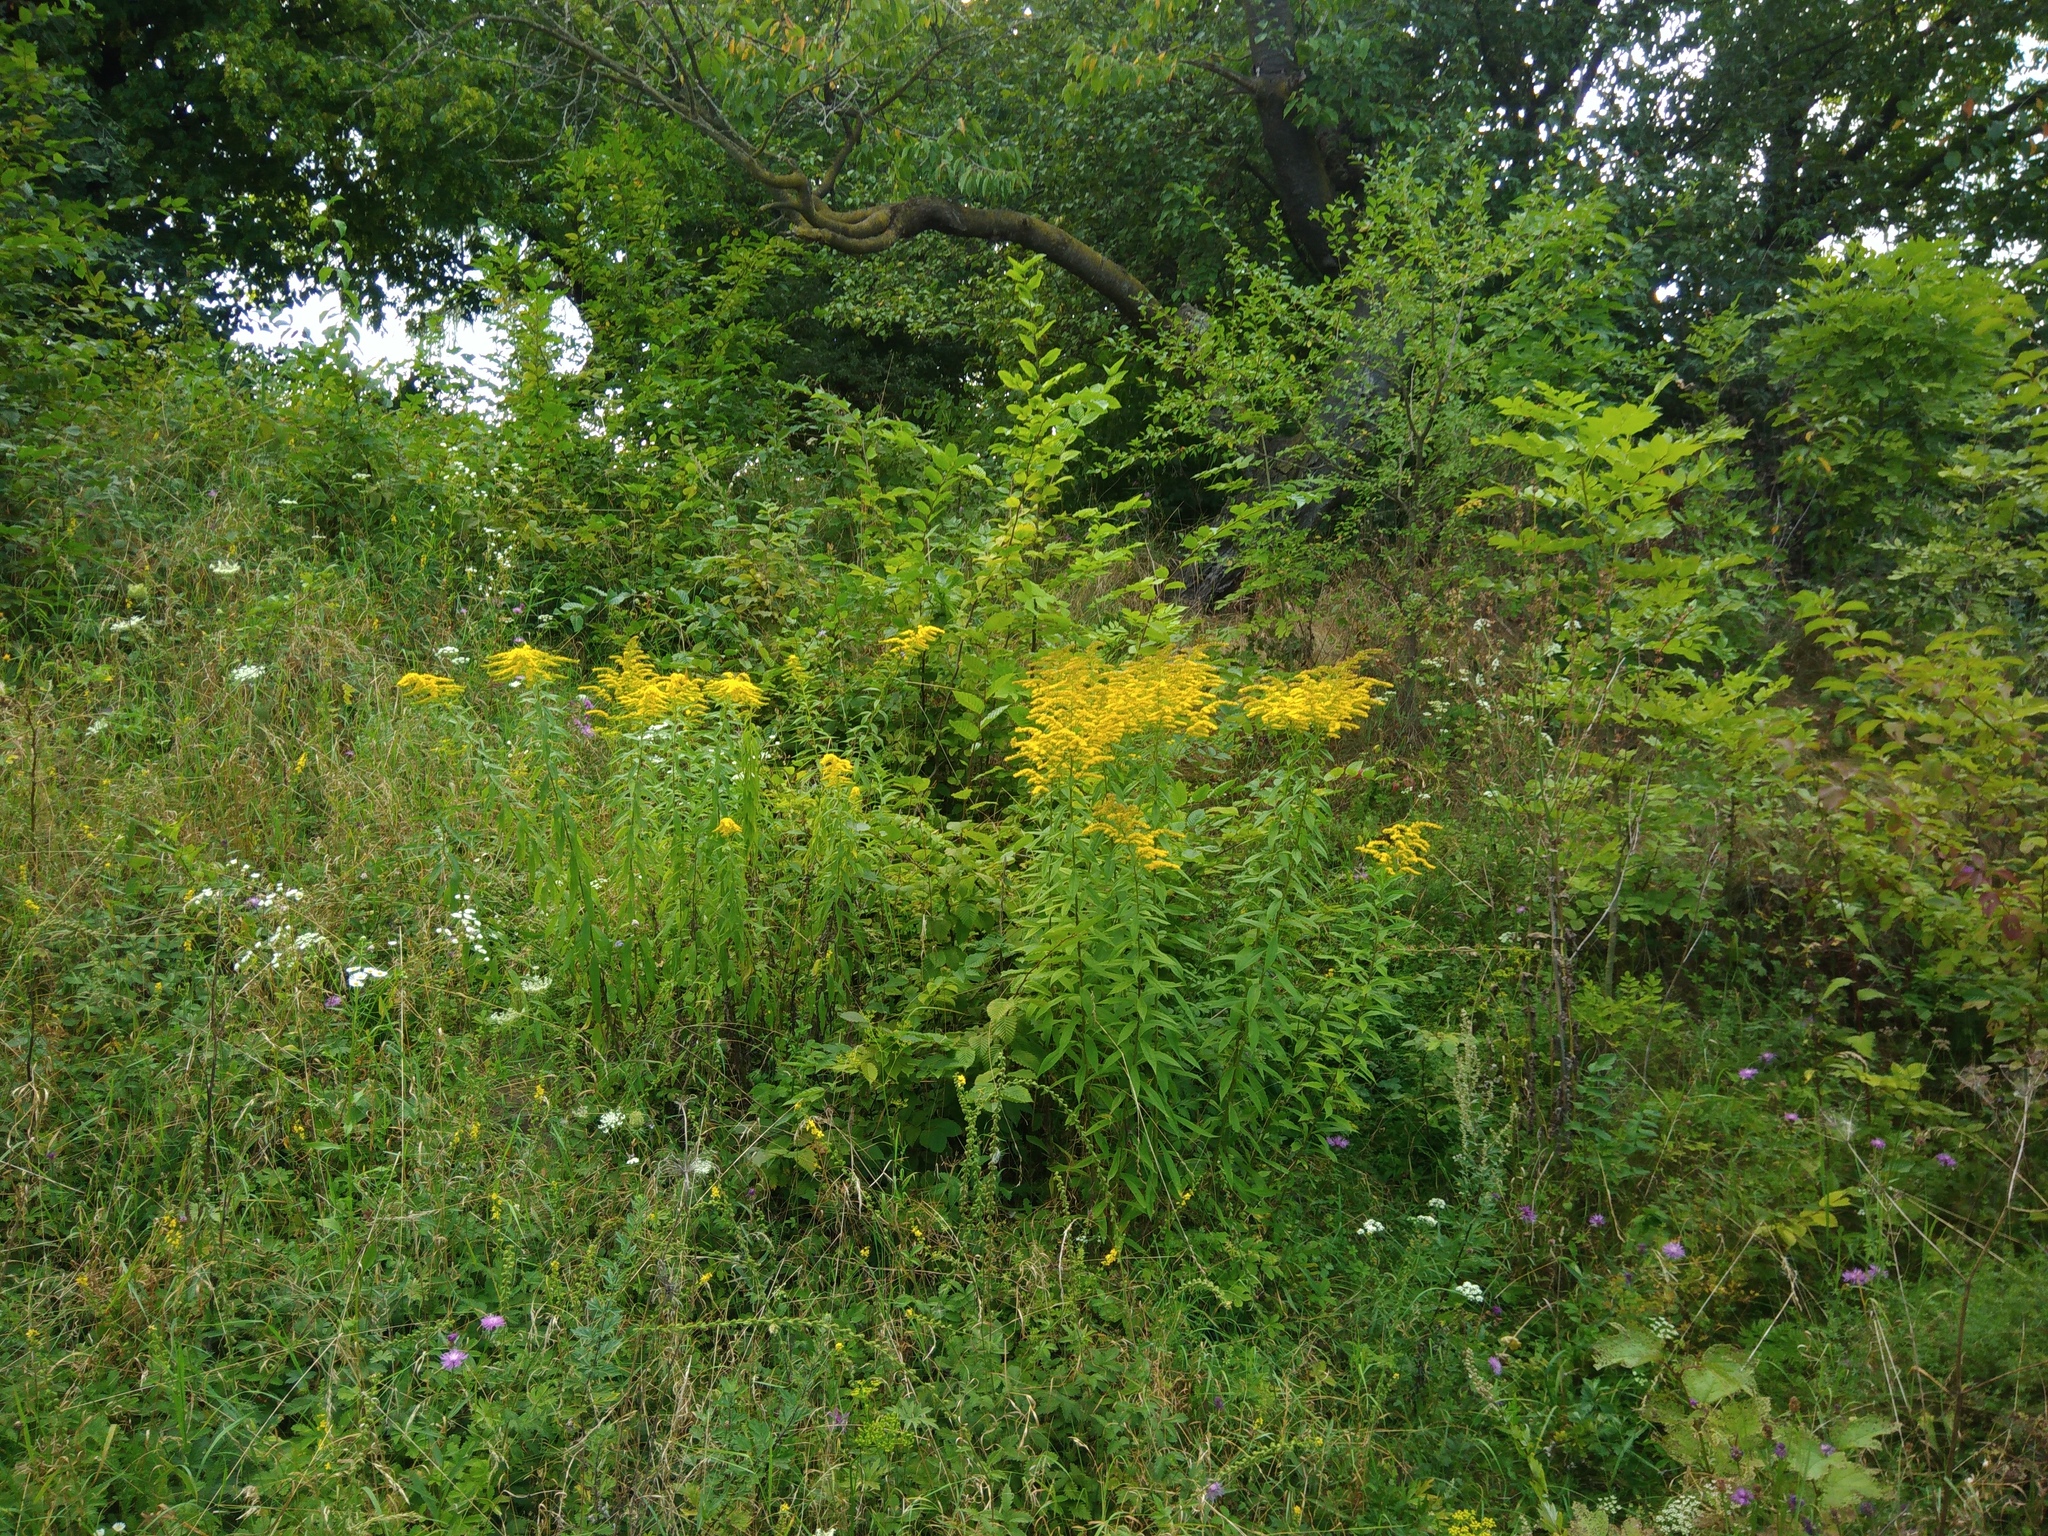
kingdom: Plantae
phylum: Tracheophyta
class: Magnoliopsida
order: Asterales
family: Asteraceae
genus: Solidago
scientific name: Solidago canadensis
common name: Canada goldenrod
